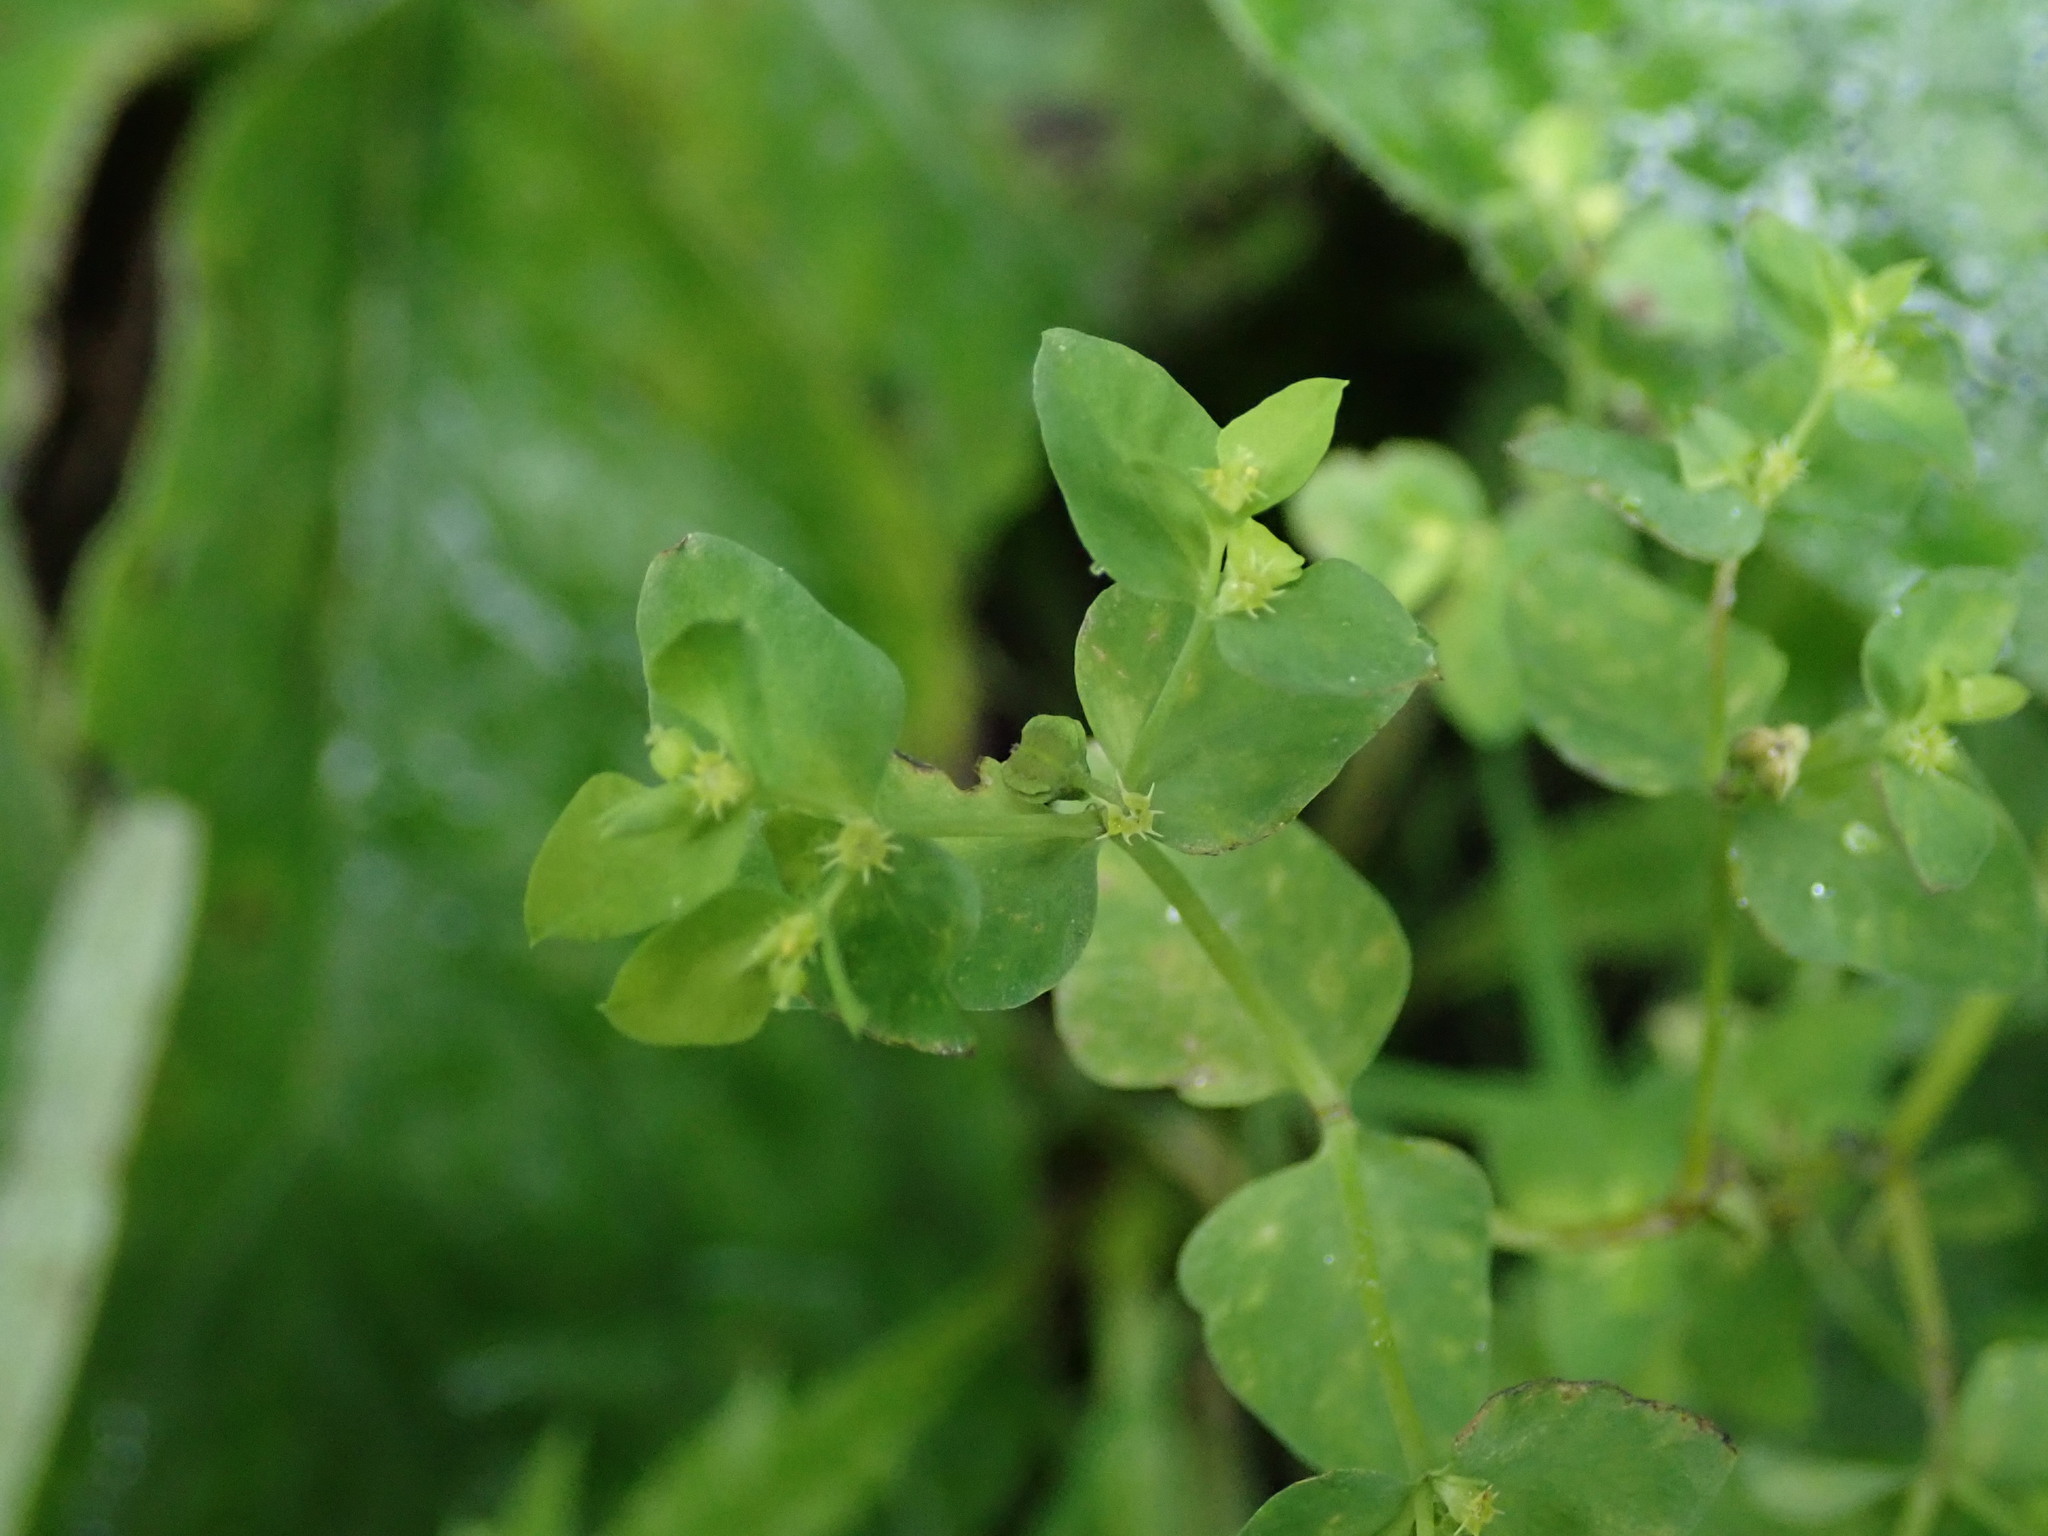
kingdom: Plantae
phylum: Tracheophyta
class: Magnoliopsida
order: Malpighiales
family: Euphorbiaceae
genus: Euphorbia
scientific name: Euphorbia peplus
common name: Petty spurge
